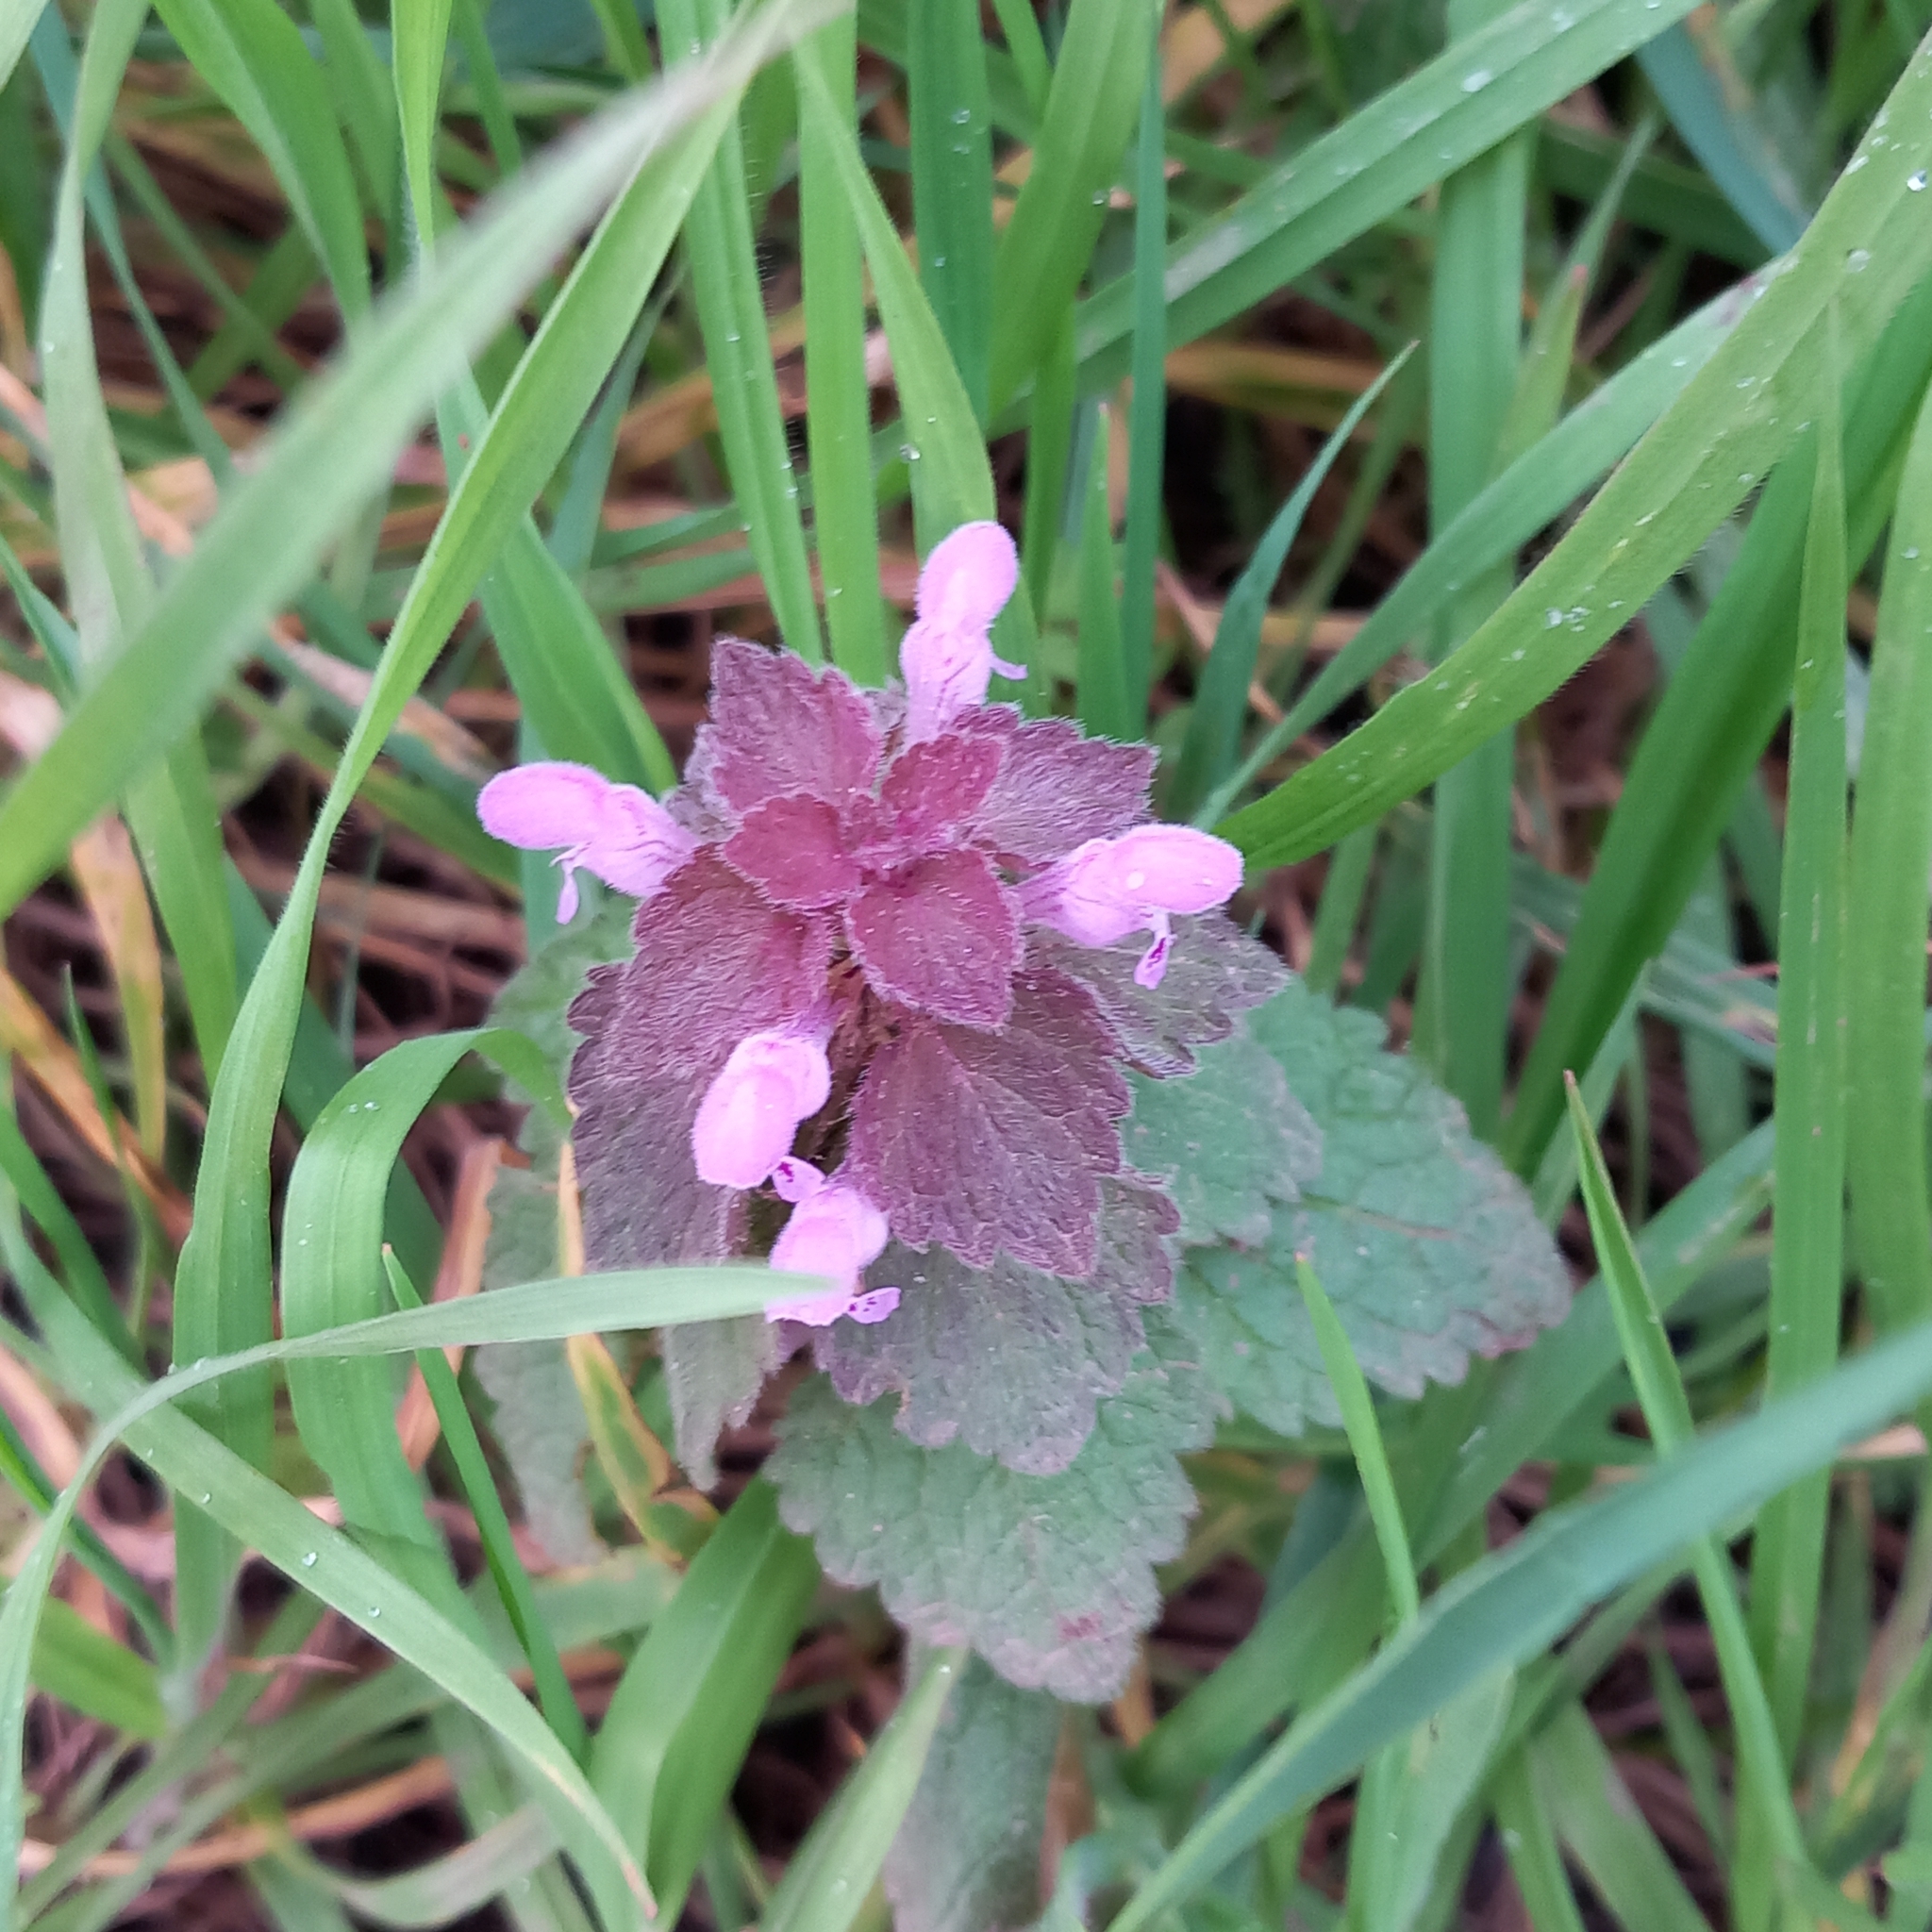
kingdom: Plantae
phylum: Tracheophyta
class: Magnoliopsida
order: Lamiales
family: Lamiaceae
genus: Lamium
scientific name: Lamium purpureum
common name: Red dead-nettle
